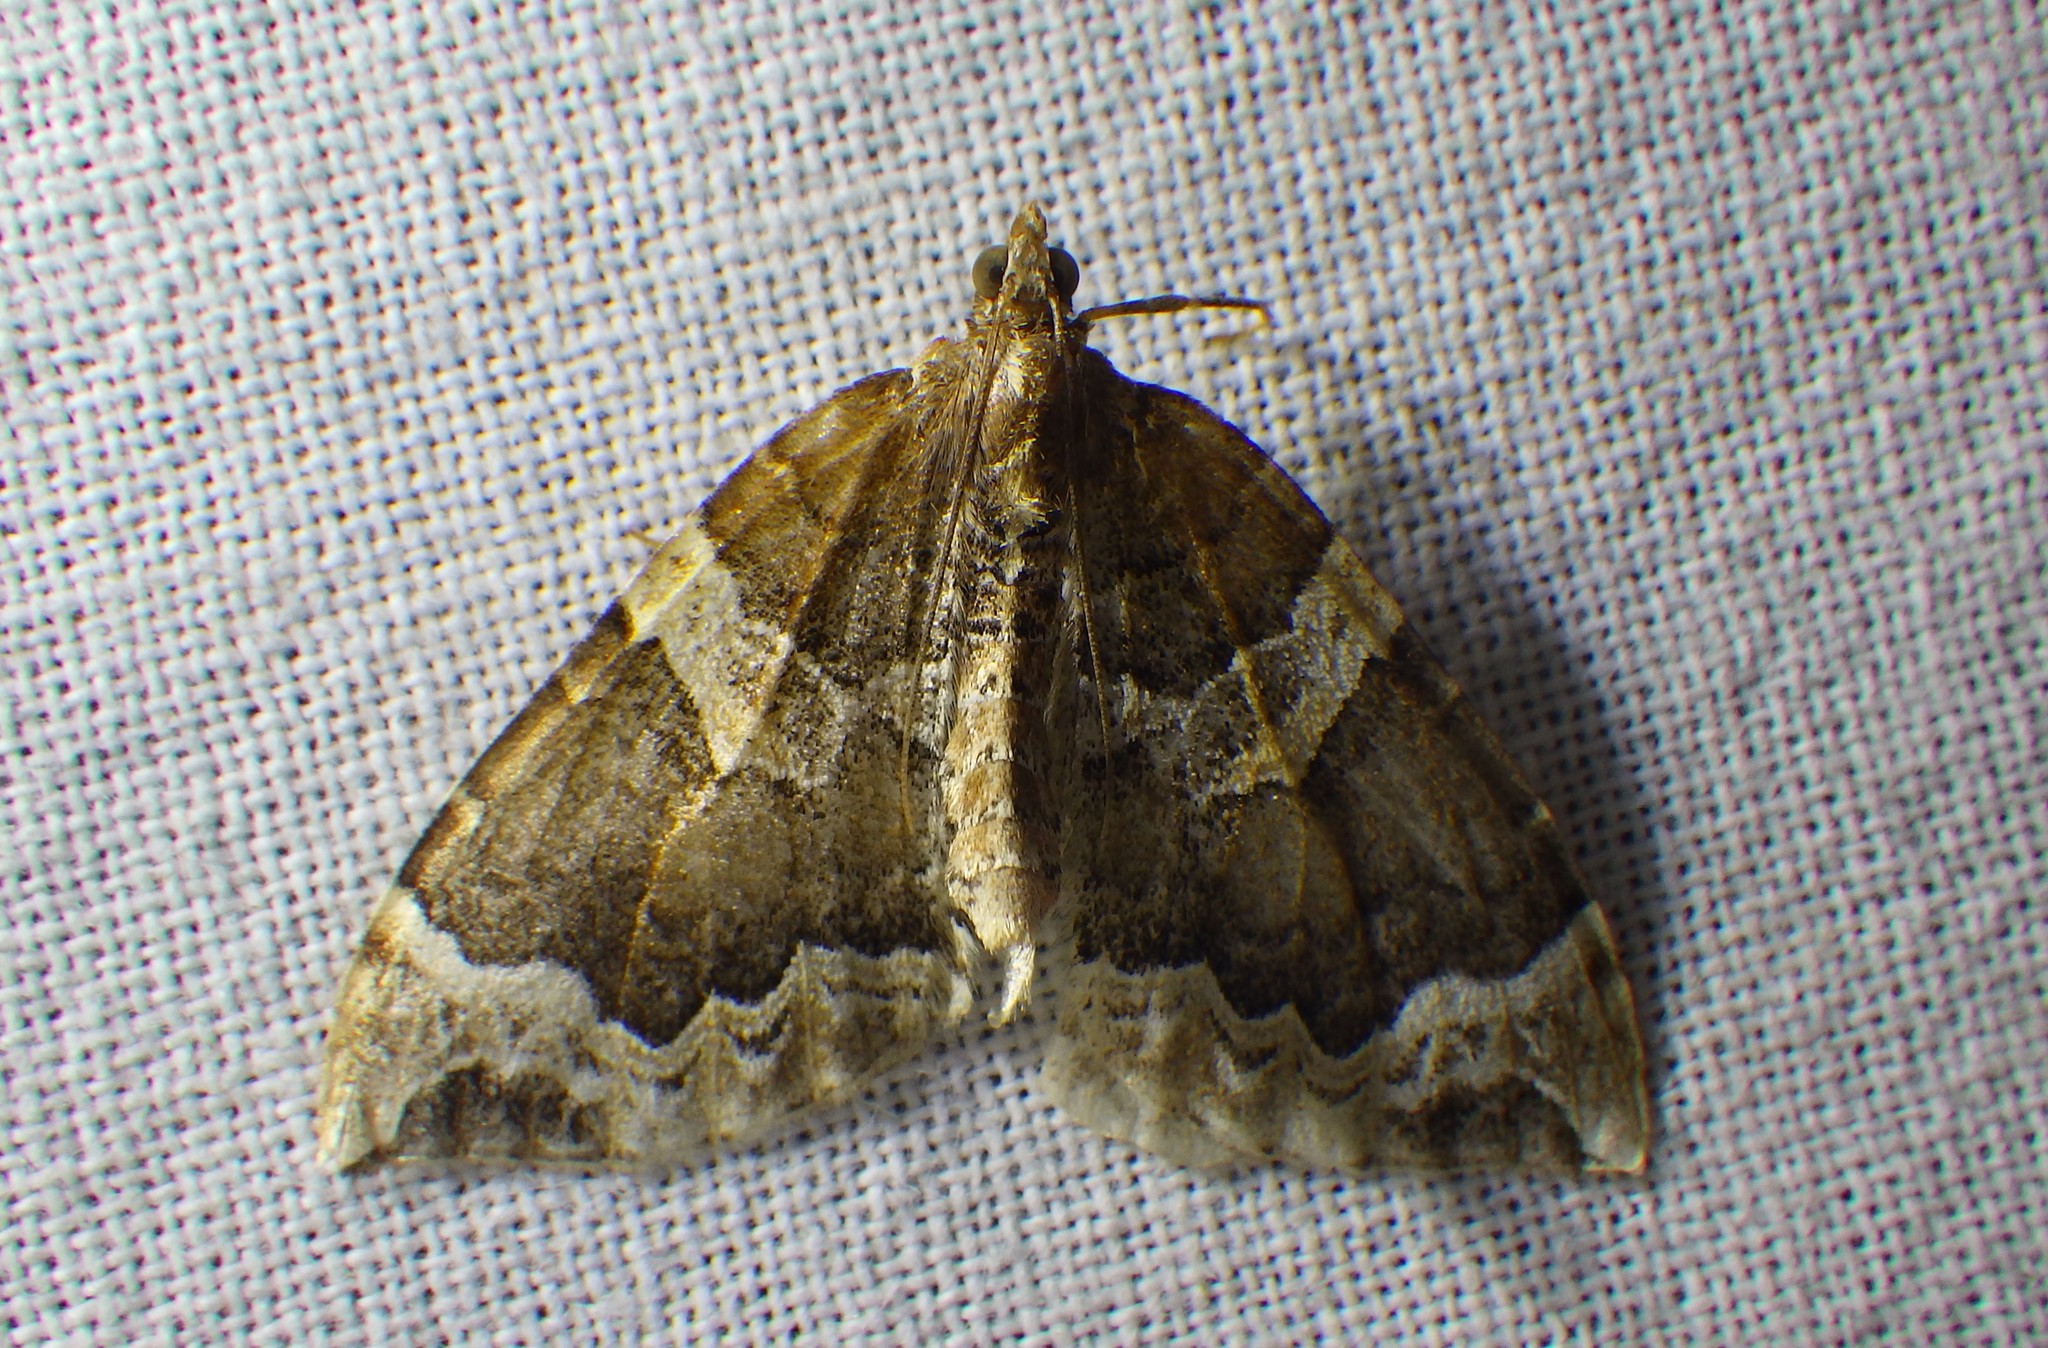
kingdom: Animalia
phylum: Arthropoda
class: Insecta
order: Lepidoptera
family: Geometridae
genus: Eulithis
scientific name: Eulithis prunata
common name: Phoenix
